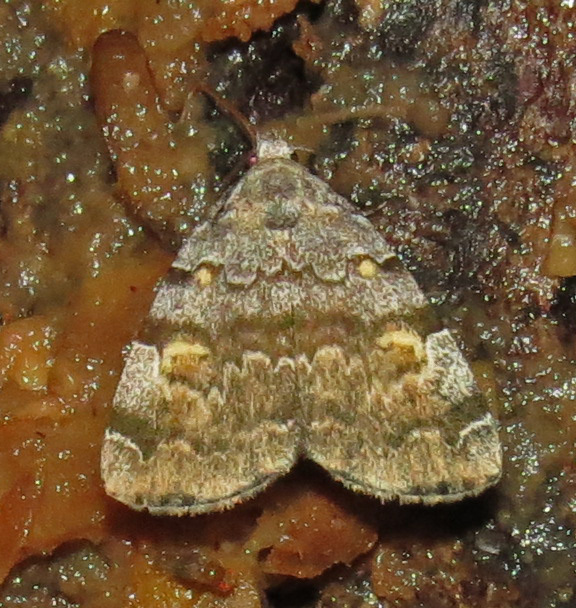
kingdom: Animalia
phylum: Arthropoda
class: Insecta
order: Lepidoptera
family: Erebidae
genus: Idia
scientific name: Idia americalis
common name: American idia moth
